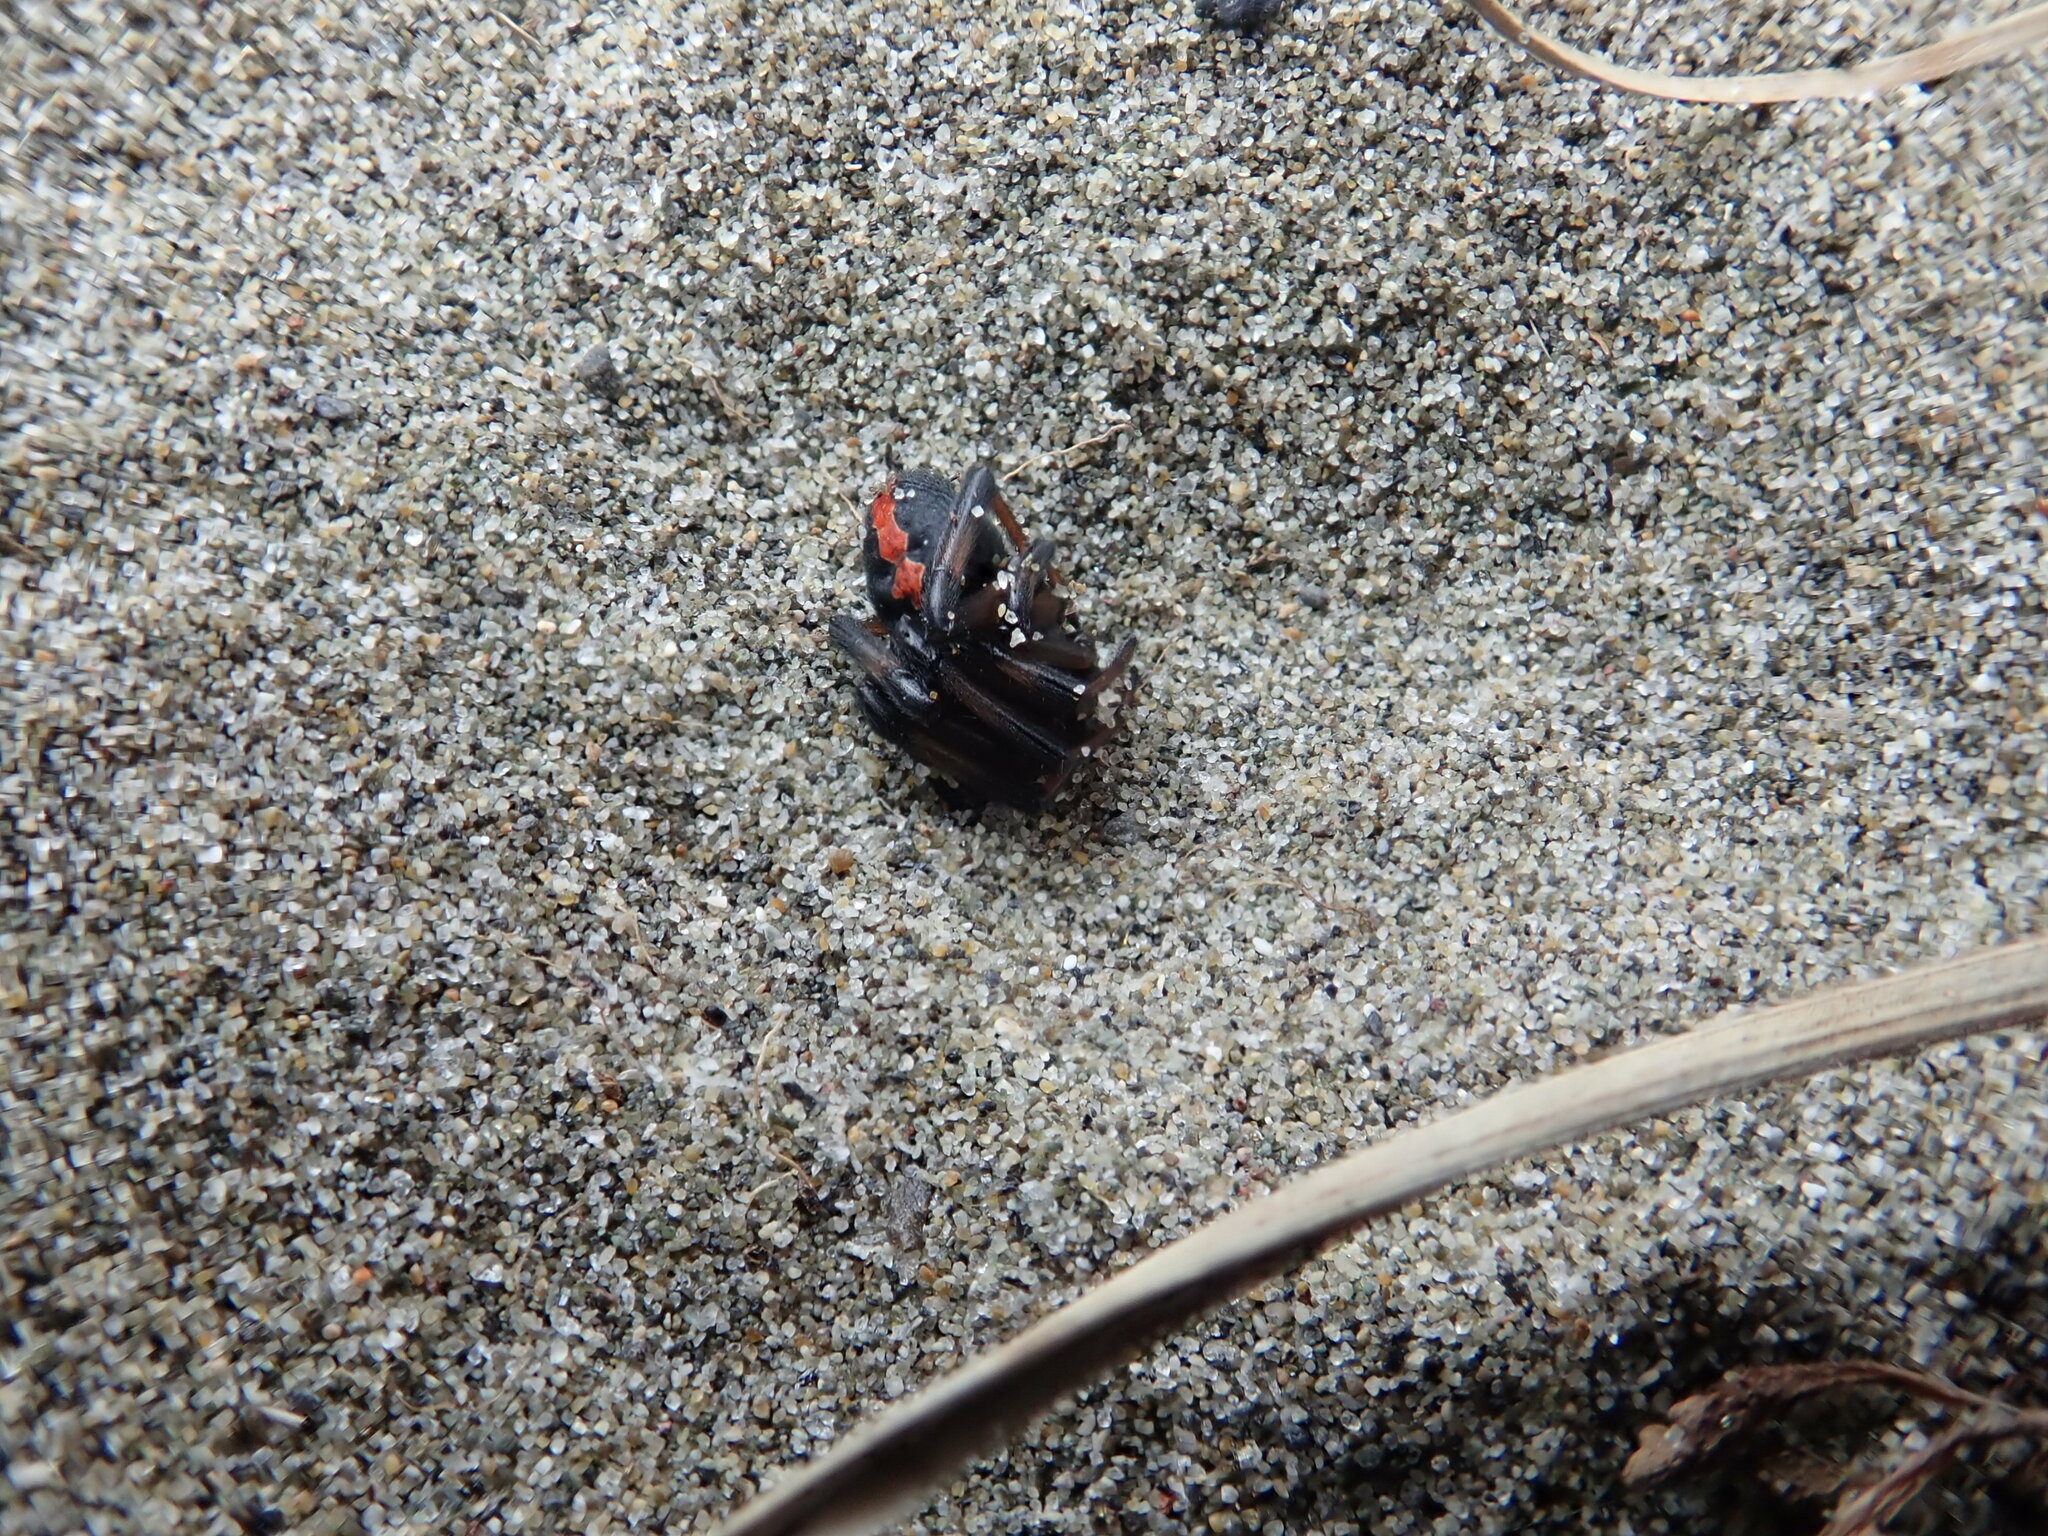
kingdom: Animalia
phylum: Arthropoda
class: Arachnida
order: Araneae
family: Theridiidae
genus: Latrodectus
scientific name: Latrodectus katipo
